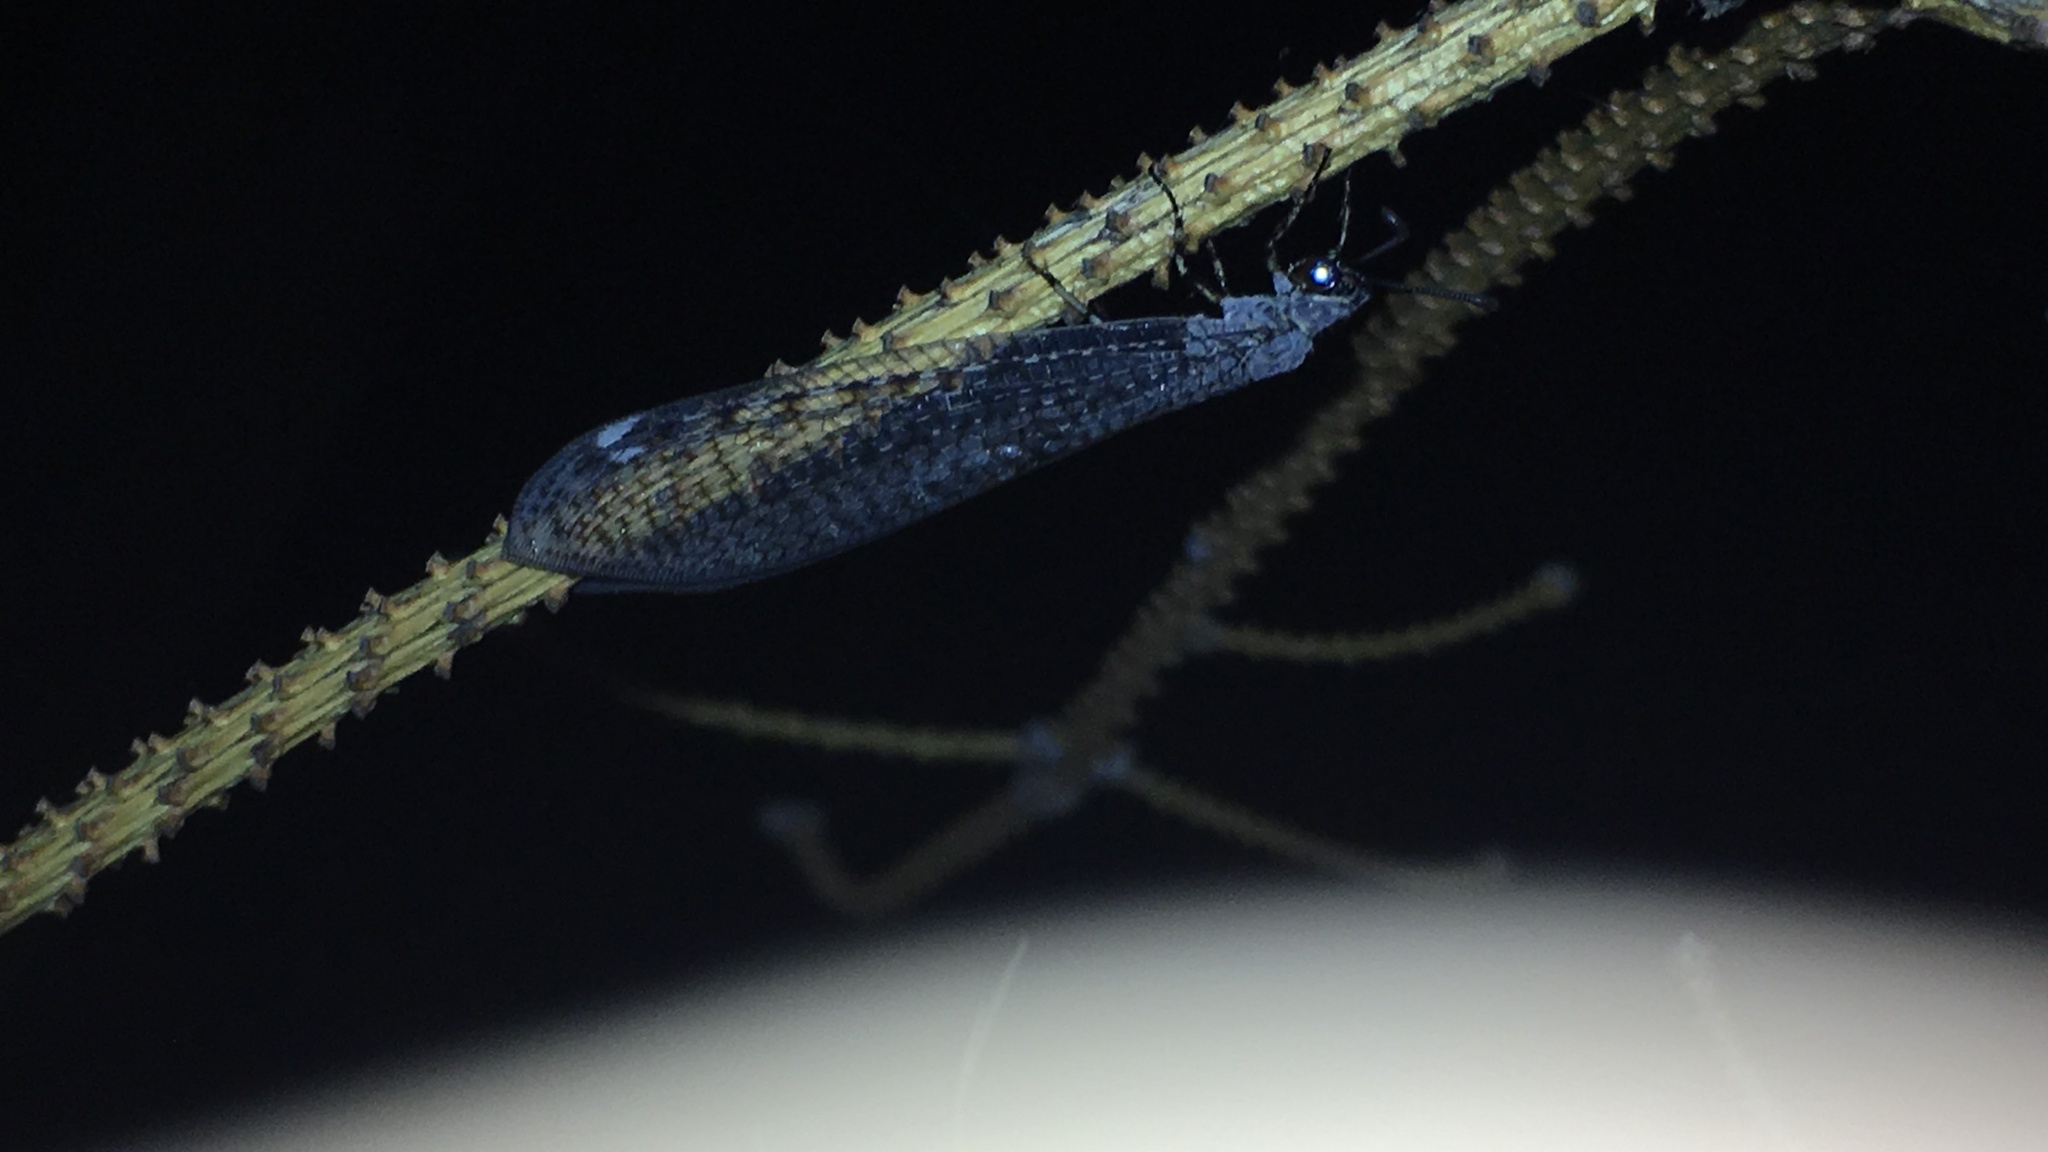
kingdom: Animalia
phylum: Arthropoda
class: Insecta
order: Neuroptera
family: Myrmeleontidae
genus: Myrmeleon
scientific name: Myrmeleon exitialis
